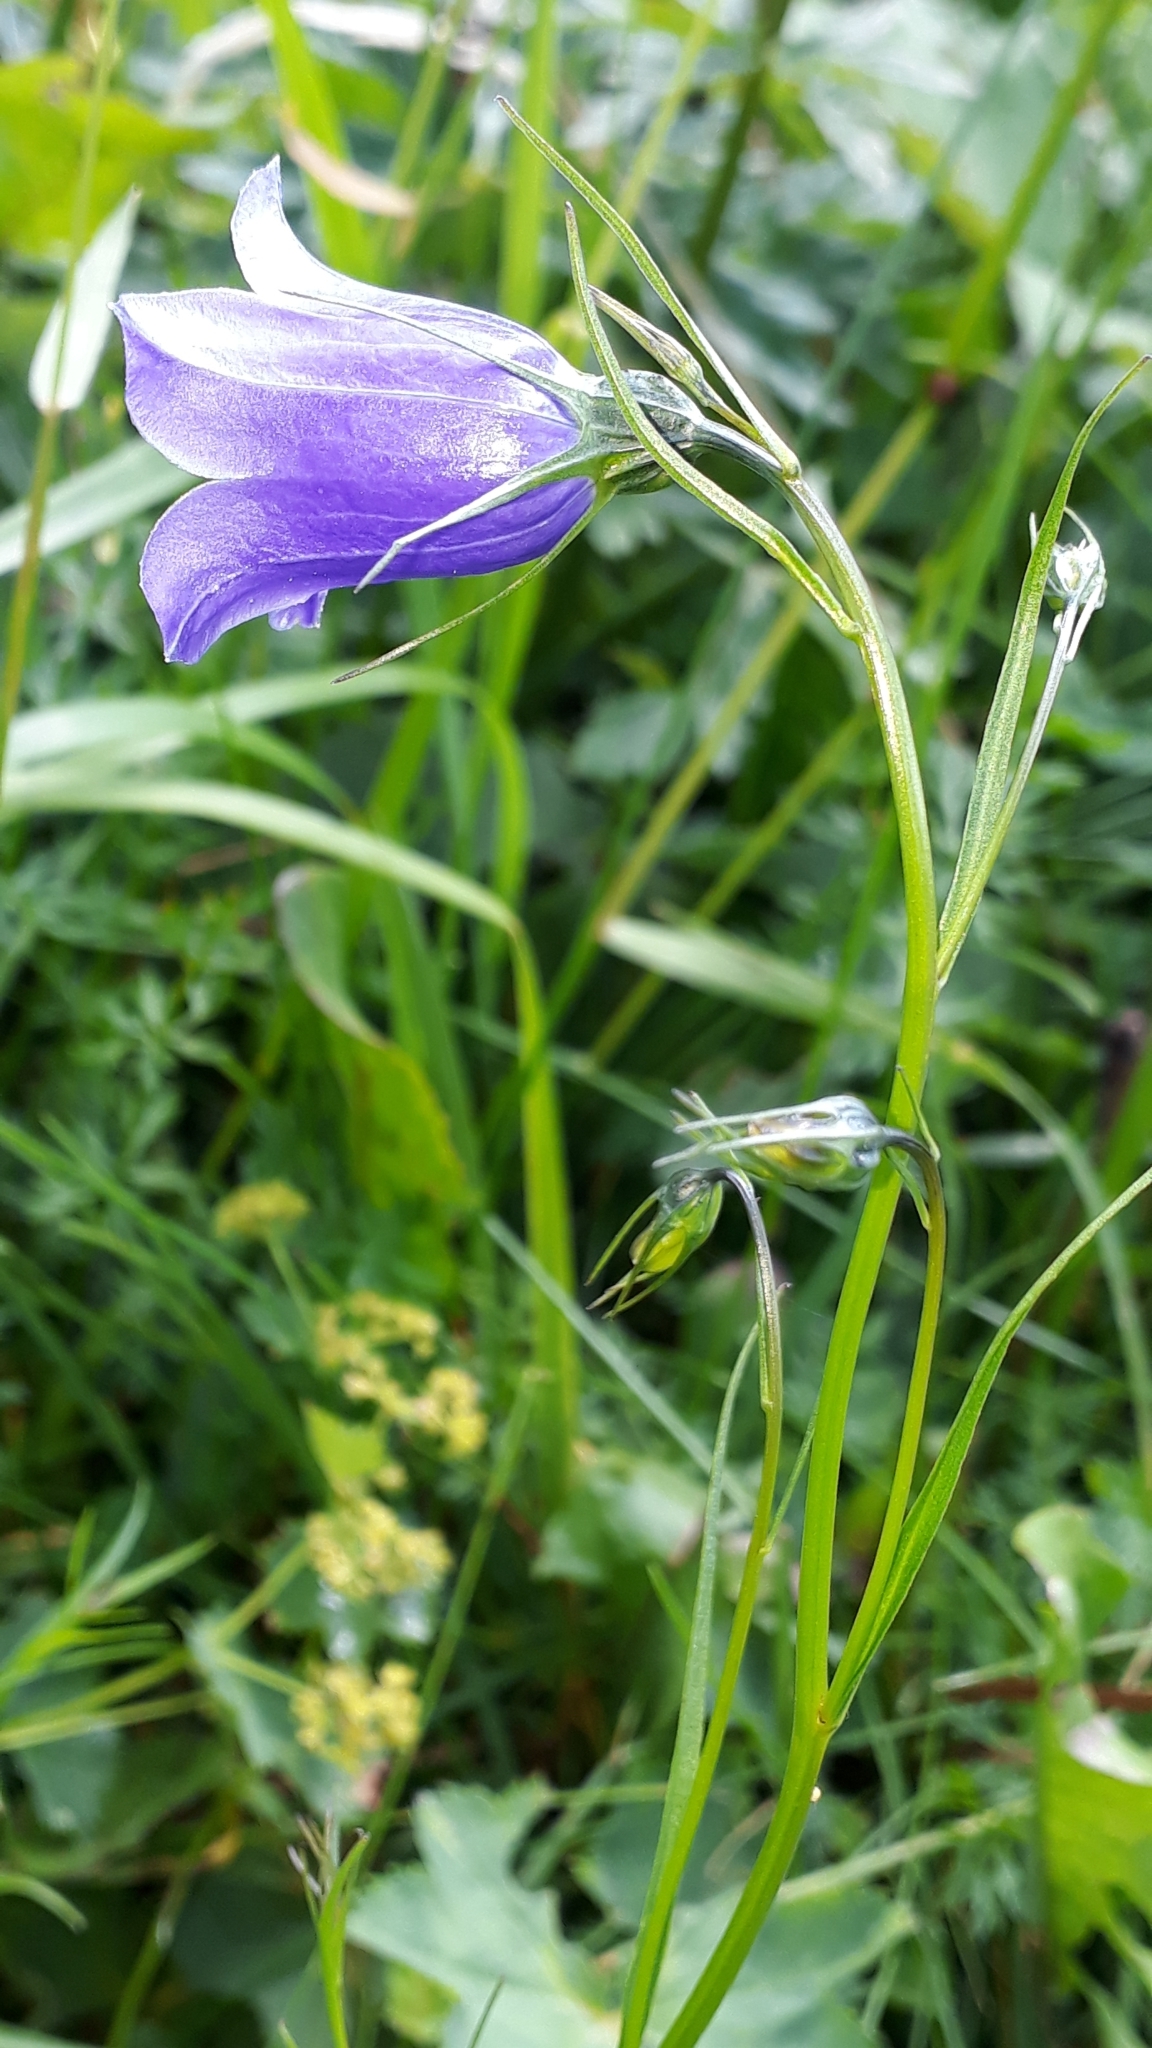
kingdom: Plantae
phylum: Tracheophyta
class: Magnoliopsida
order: Asterales
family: Campanulaceae
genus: Campanula
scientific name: Campanula scheuchzeri
